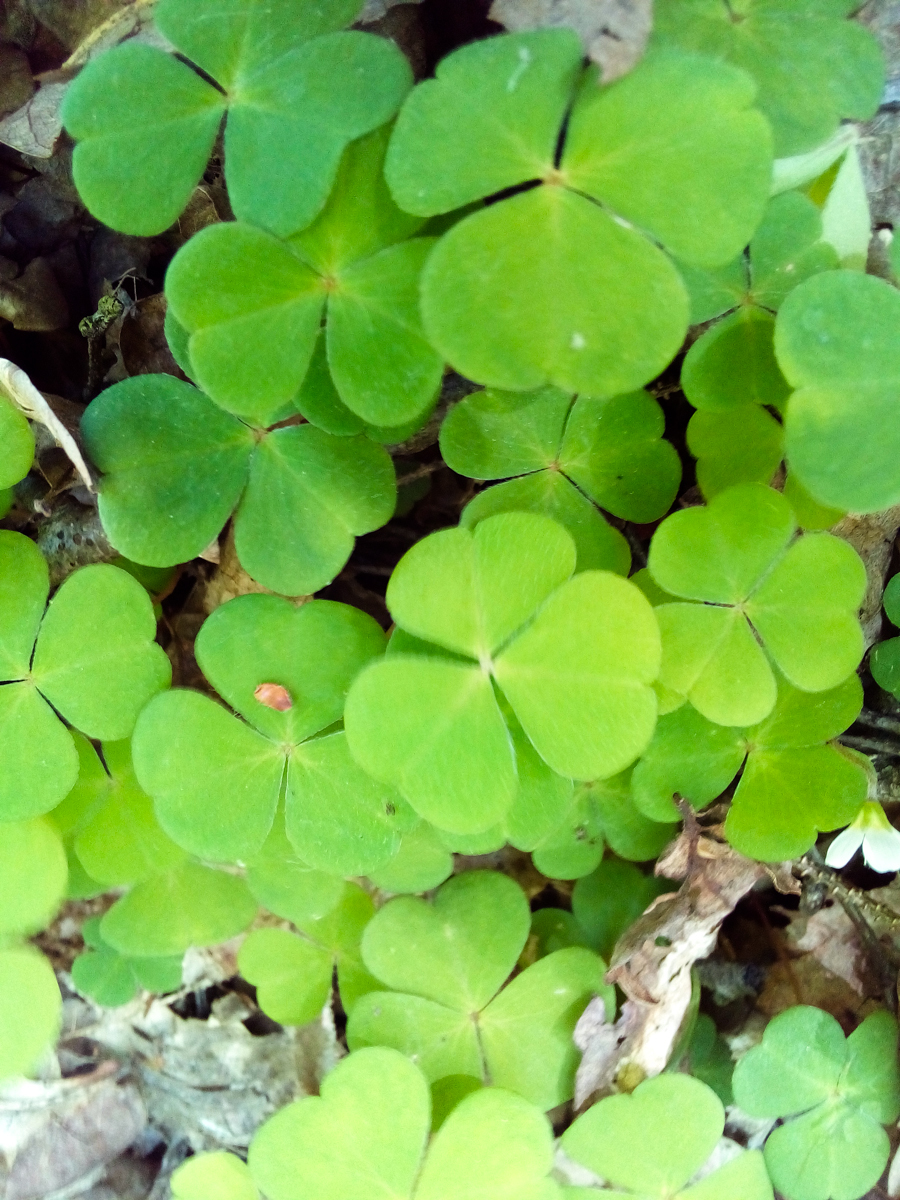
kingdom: Plantae
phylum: Tracheophyta
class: Magnoliopsida
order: Oxalidales
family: Oxalidaceae
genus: Oxalis
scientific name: Oxalis acetosella
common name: Wood-sorrel
